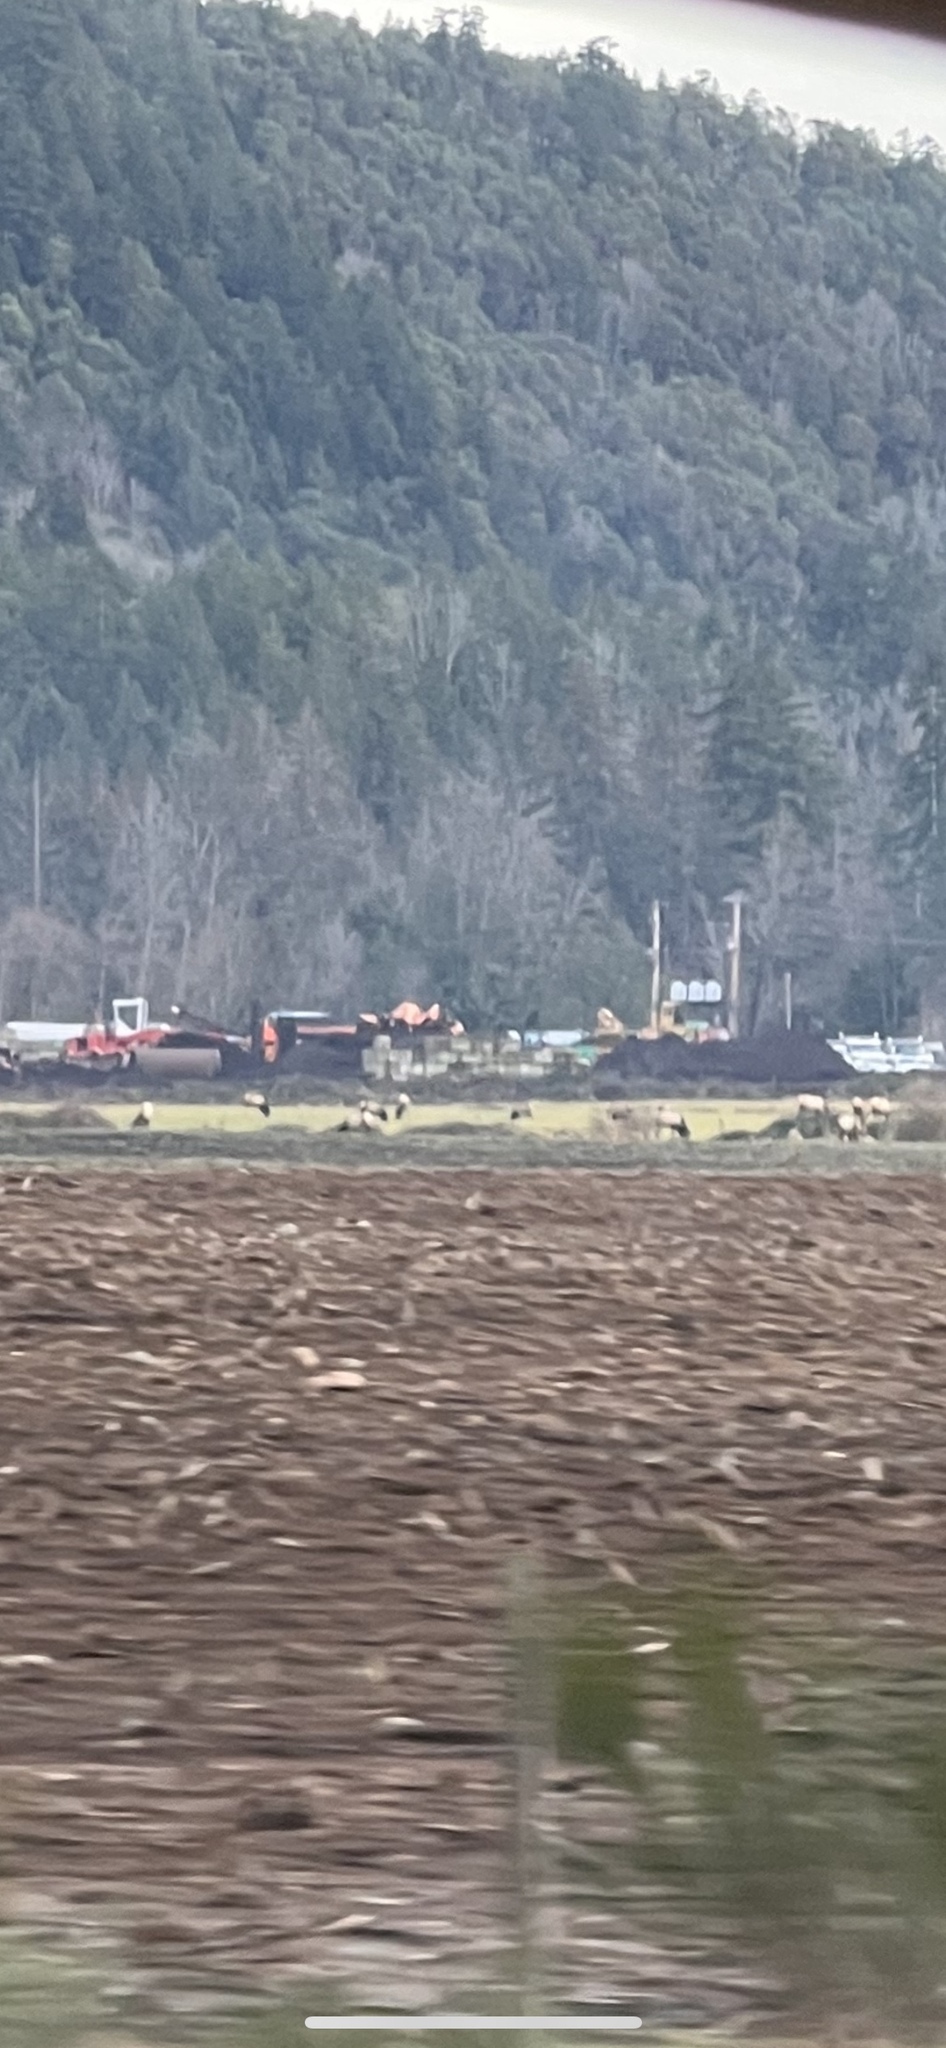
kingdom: Animalia
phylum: Chordata
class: Mammalia
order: Artiodactyla
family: Cervidae
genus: Cervus
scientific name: Cervus elaphus
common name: Red deer
